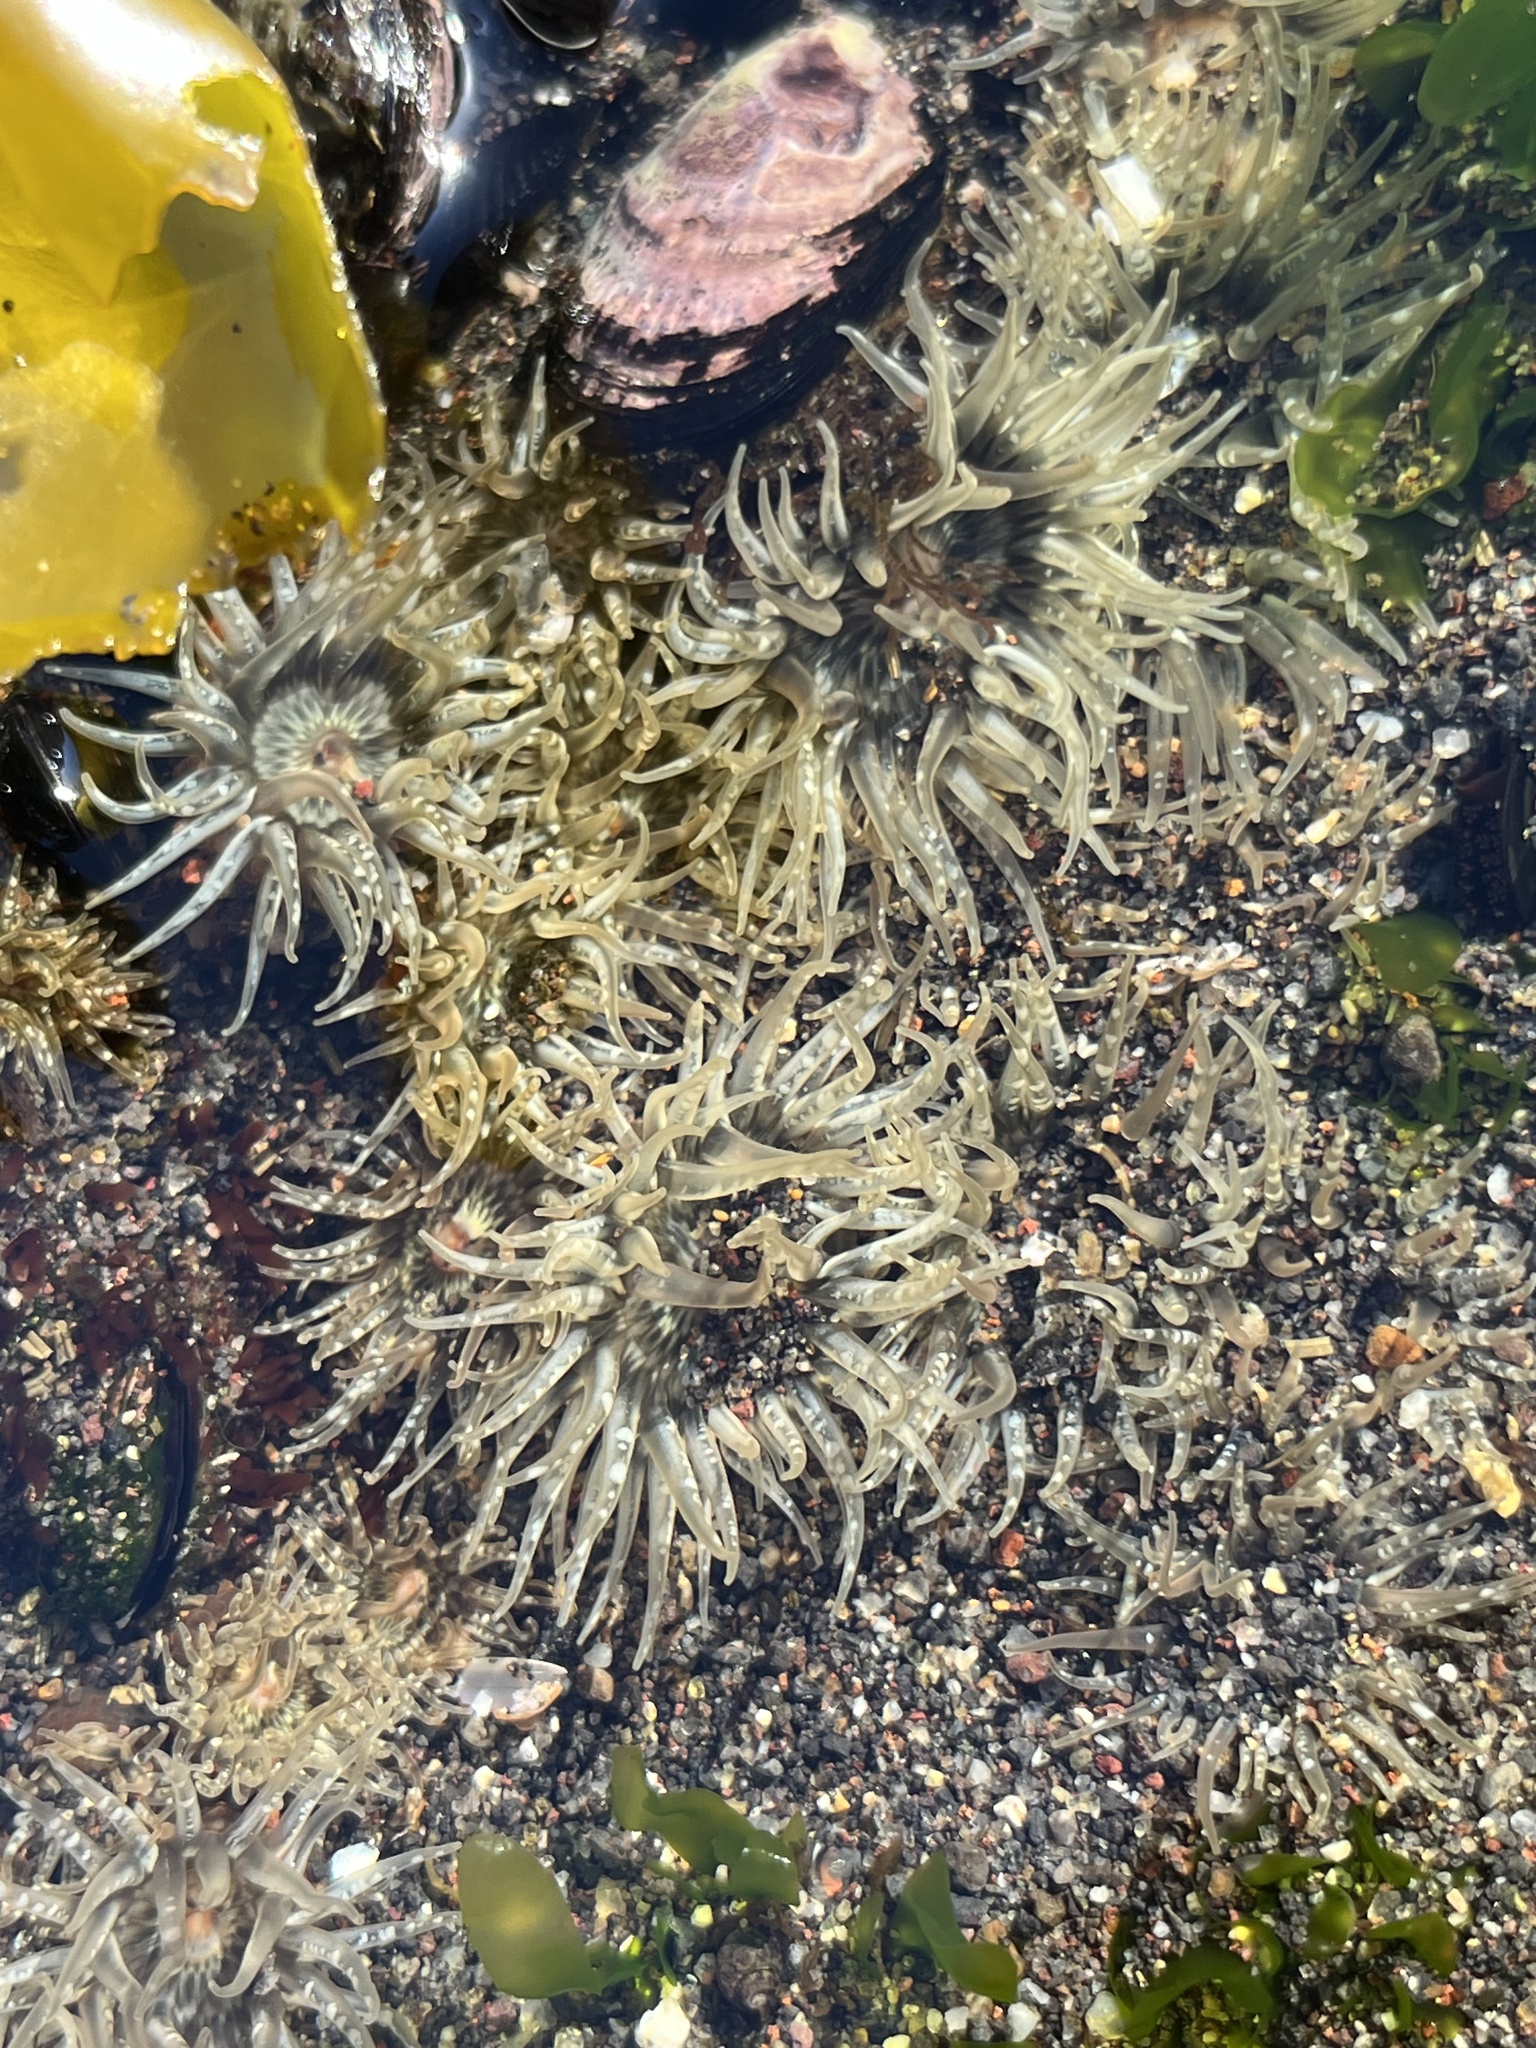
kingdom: Animalia
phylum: Cnidaria
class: Anthozoa
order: Actiniaria
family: Actiniidae
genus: Anthopleura
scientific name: Anthopleura hermaphroditica
